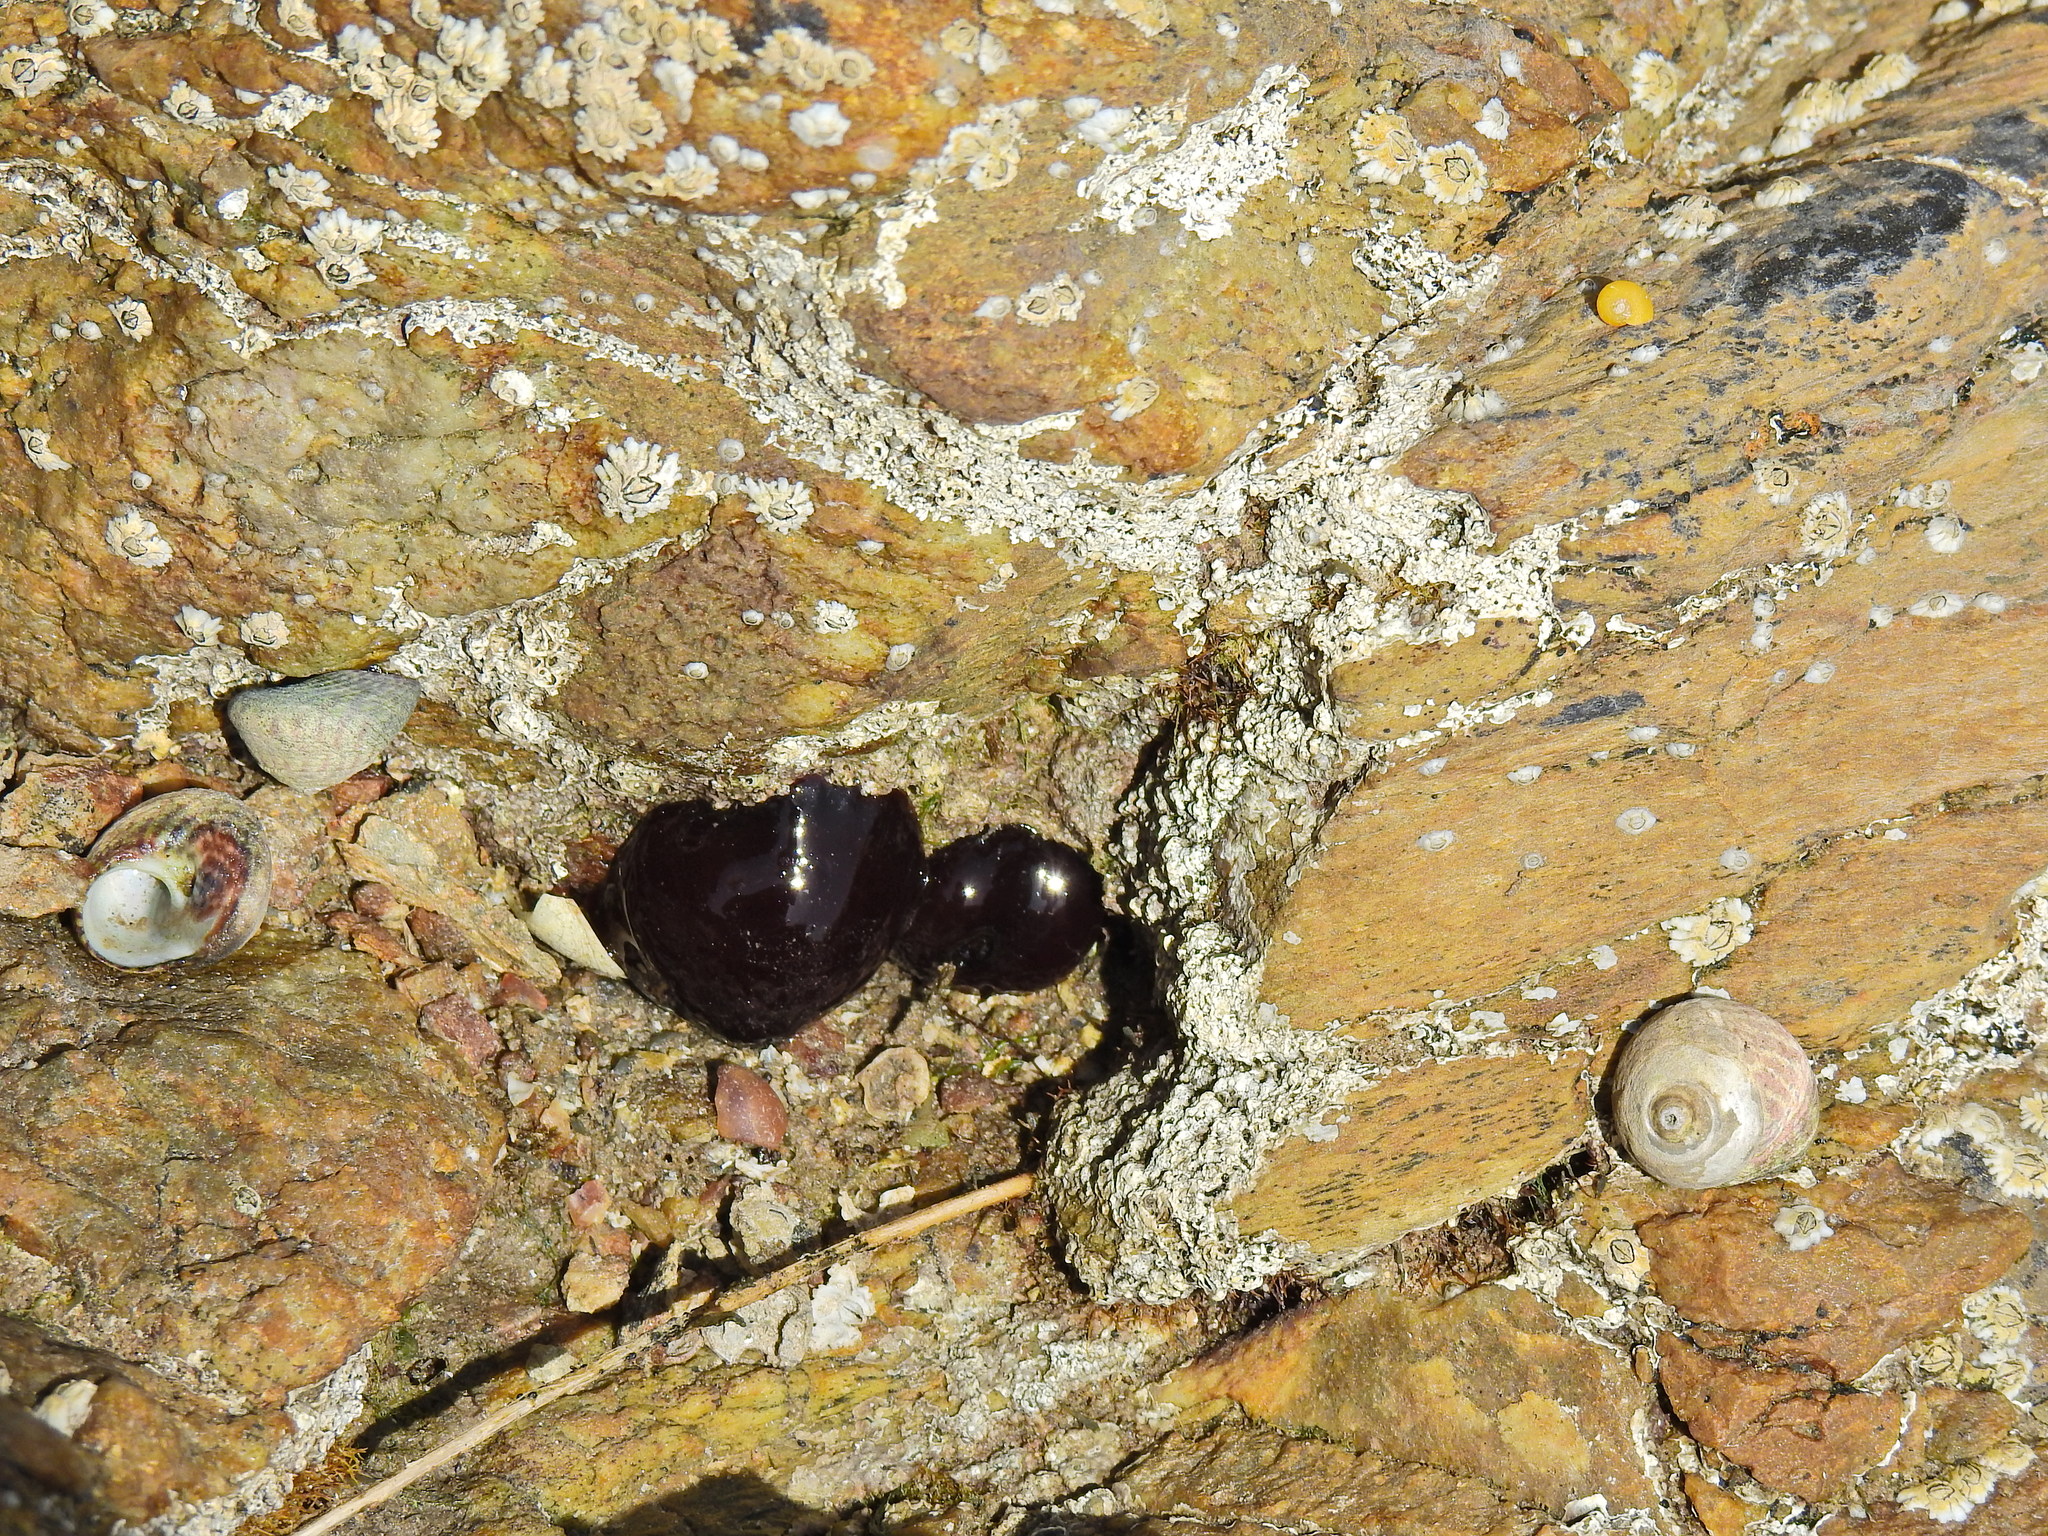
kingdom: Animalia
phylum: Cnidaria
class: Anthozoa
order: Actiniaria
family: Actiniidae
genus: Actinia
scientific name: Actinia equina
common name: Beadlet anemone
